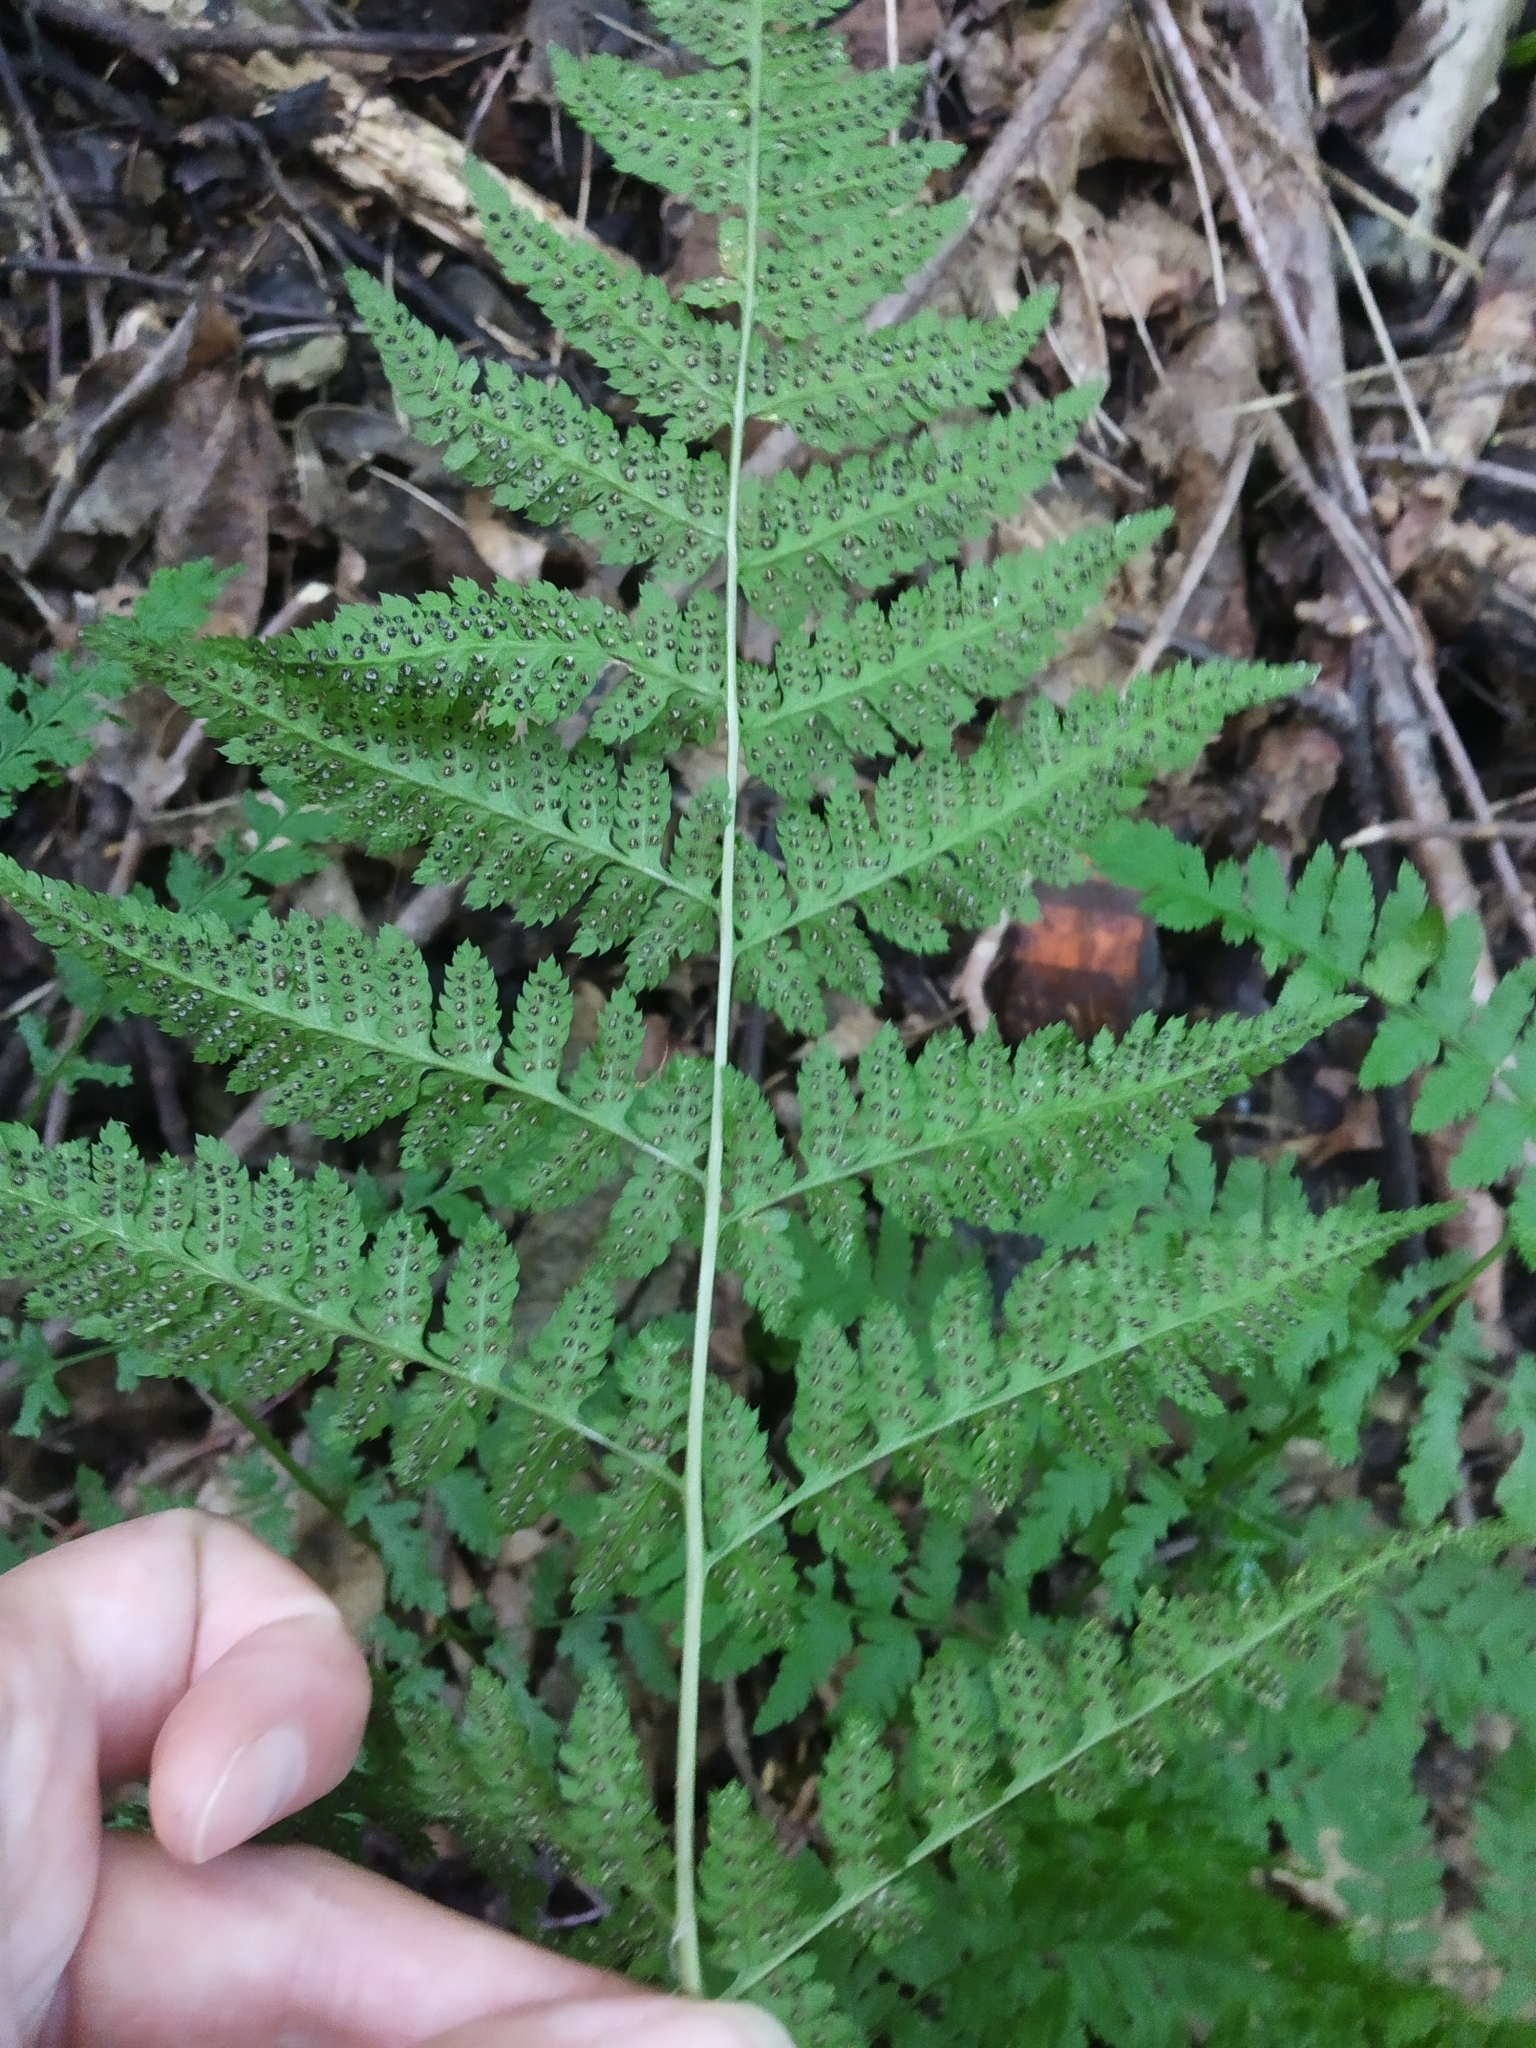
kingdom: Plantae
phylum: Tracheophyta
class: Polypodiopsida
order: Polypodiales
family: Dryopteridaceae
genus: Dryopteris
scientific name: Dryopteris carthusiana
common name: Narrow buckler-fern
